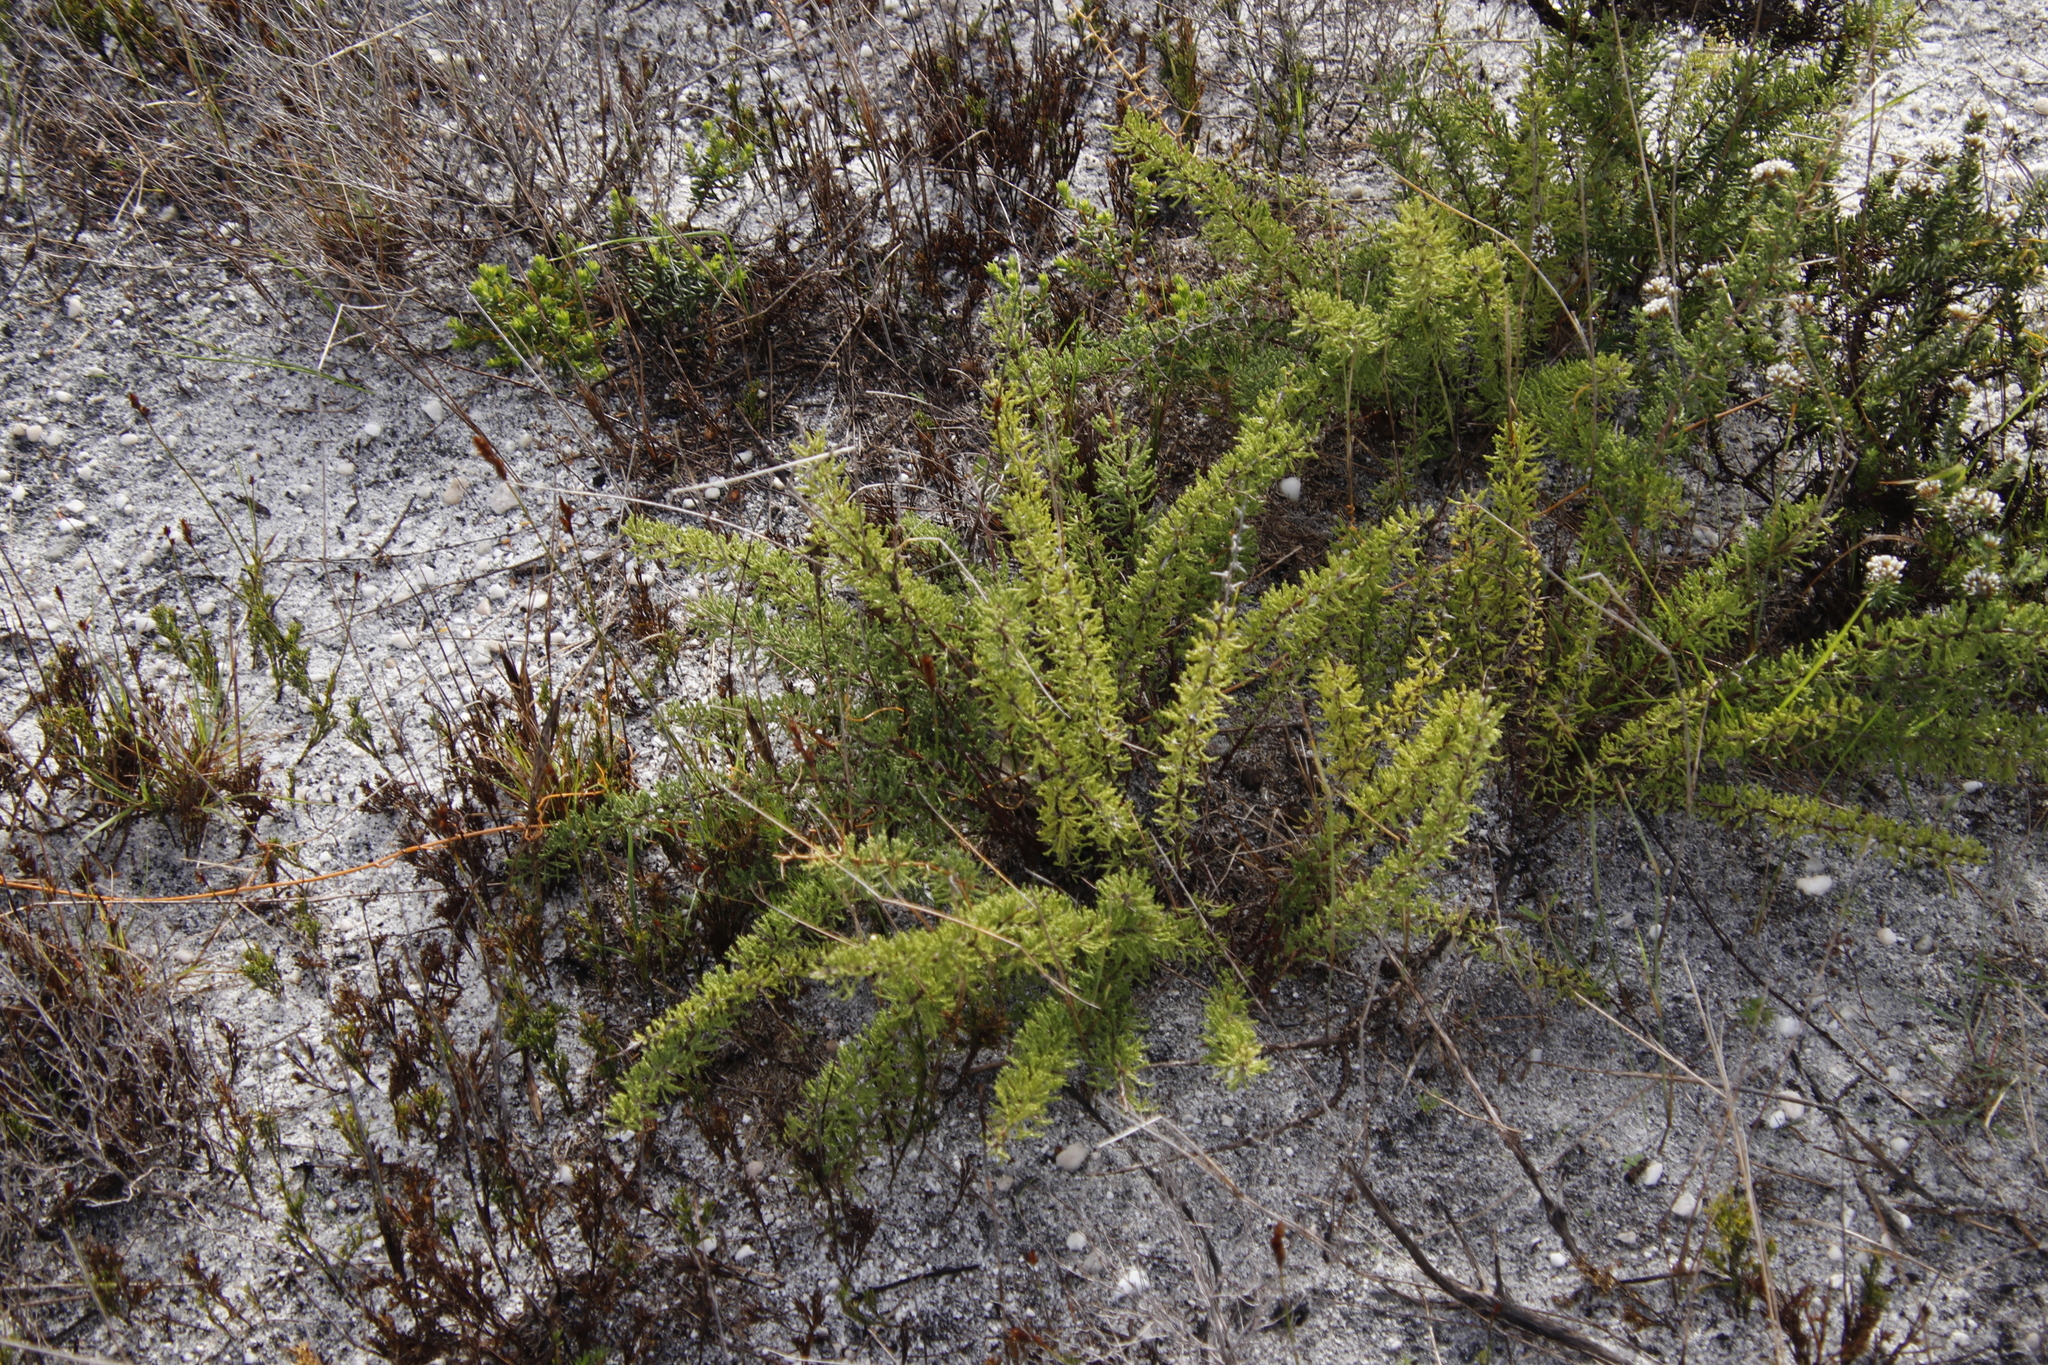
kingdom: Plantae
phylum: Tracheophyta
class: Liliopsida
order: Asparagales
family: Asparagaceae
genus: Asparagus
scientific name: Asparagus capensis
